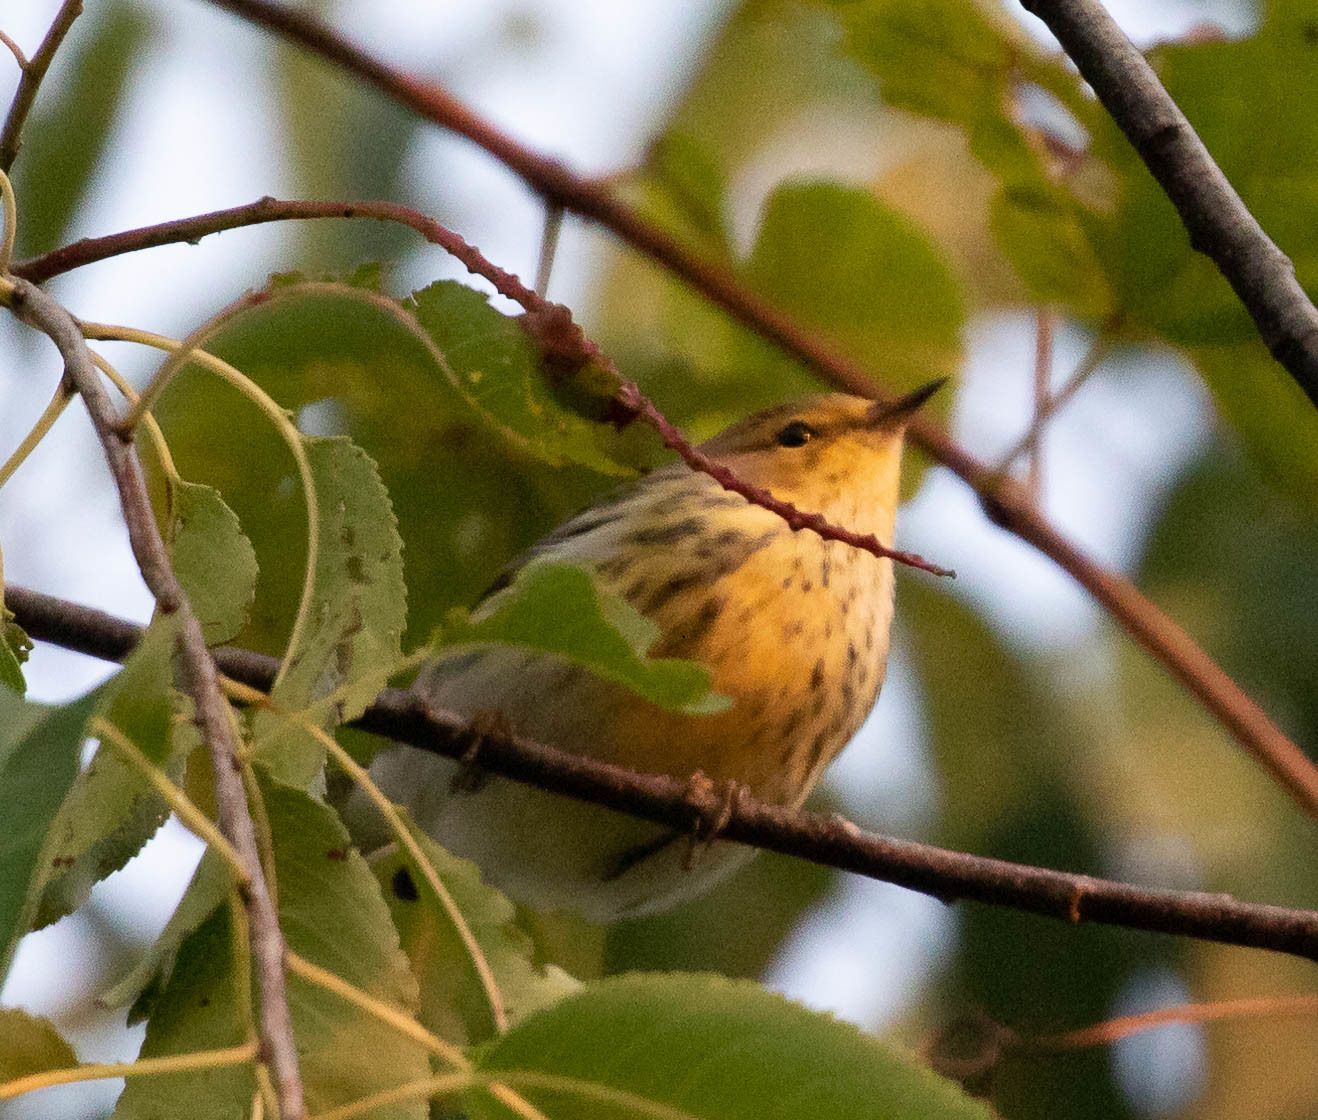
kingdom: Animalia
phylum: Chordata
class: Aves
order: Passeriformes
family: Parulidae
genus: Setophaga
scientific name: Setophaga tigrina
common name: Cape may warbler
